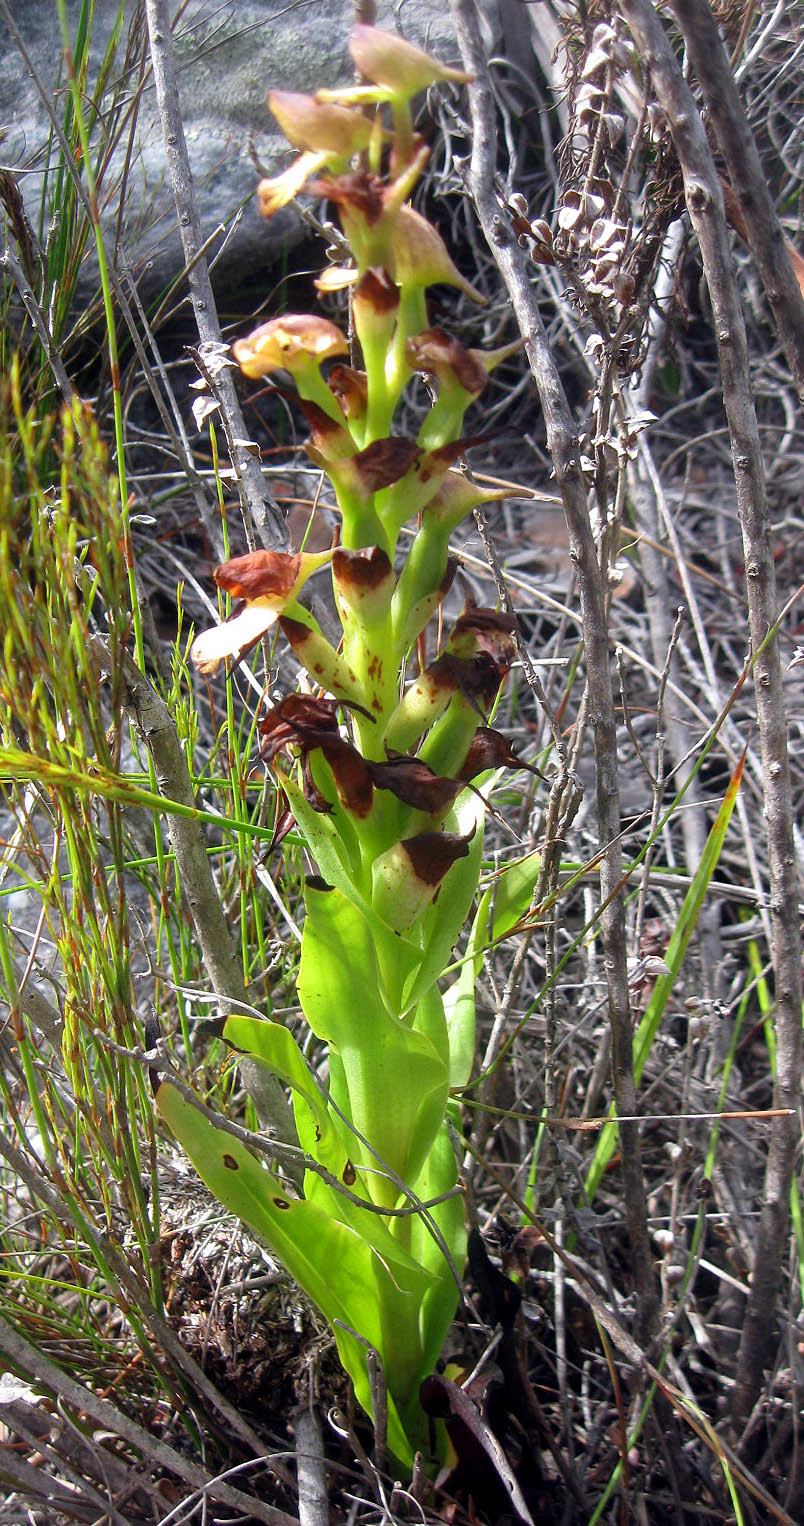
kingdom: Plantae
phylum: Tracheophyta
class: Liliopsida
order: Asparagales
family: Orchidaceae
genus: Disa
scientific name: Disa cornuta
